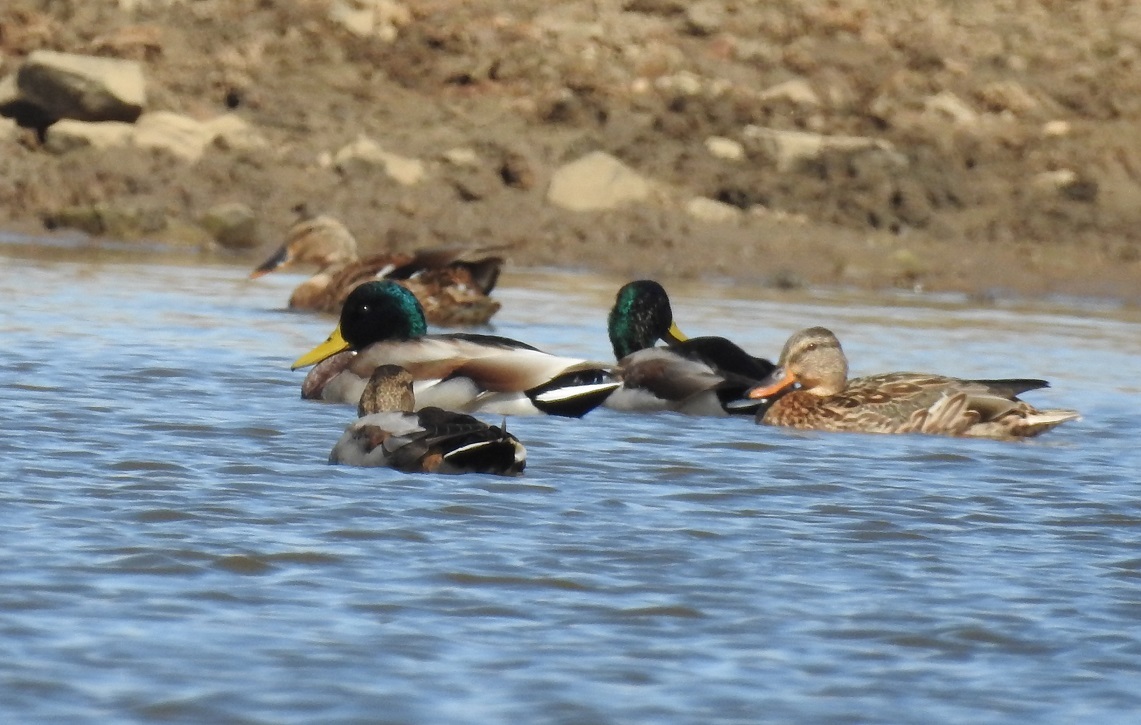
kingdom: Animalia
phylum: Chordata
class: Aves
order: Anseriformes
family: Anatidae
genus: Anas
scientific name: Anas platyrhynchos
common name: Mallard
